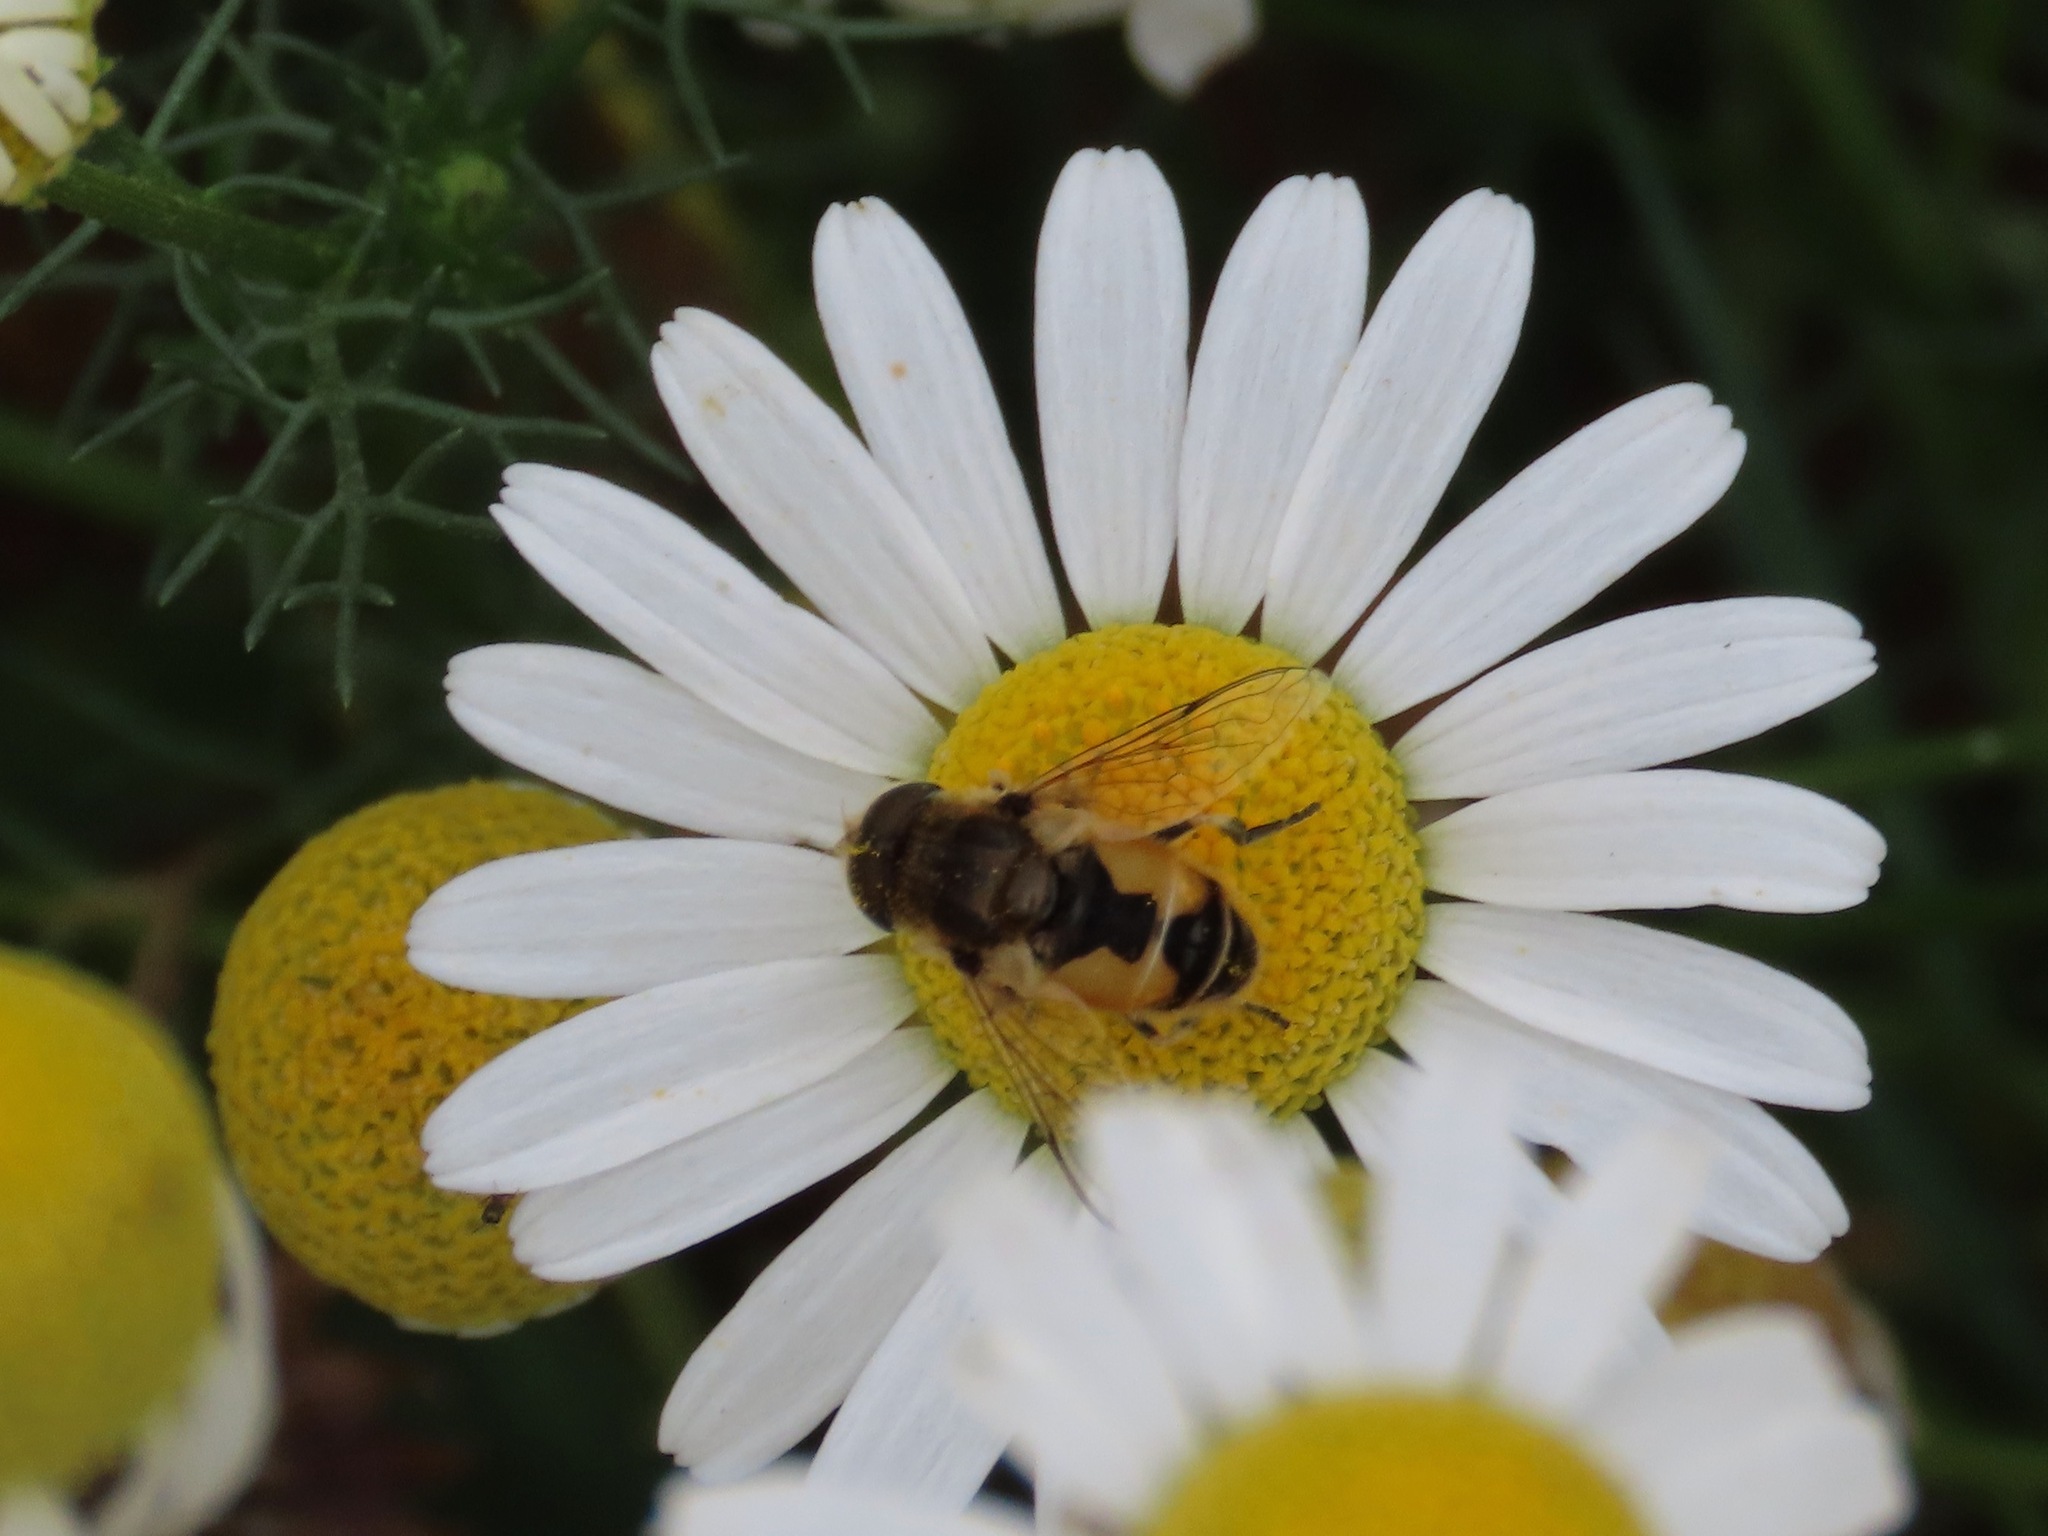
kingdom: Animalia
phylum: Arthropoda
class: Insecta
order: Diptera
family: Syrphidae
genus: Eristalis
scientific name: Eristalis arbustorum
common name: Hover fly
